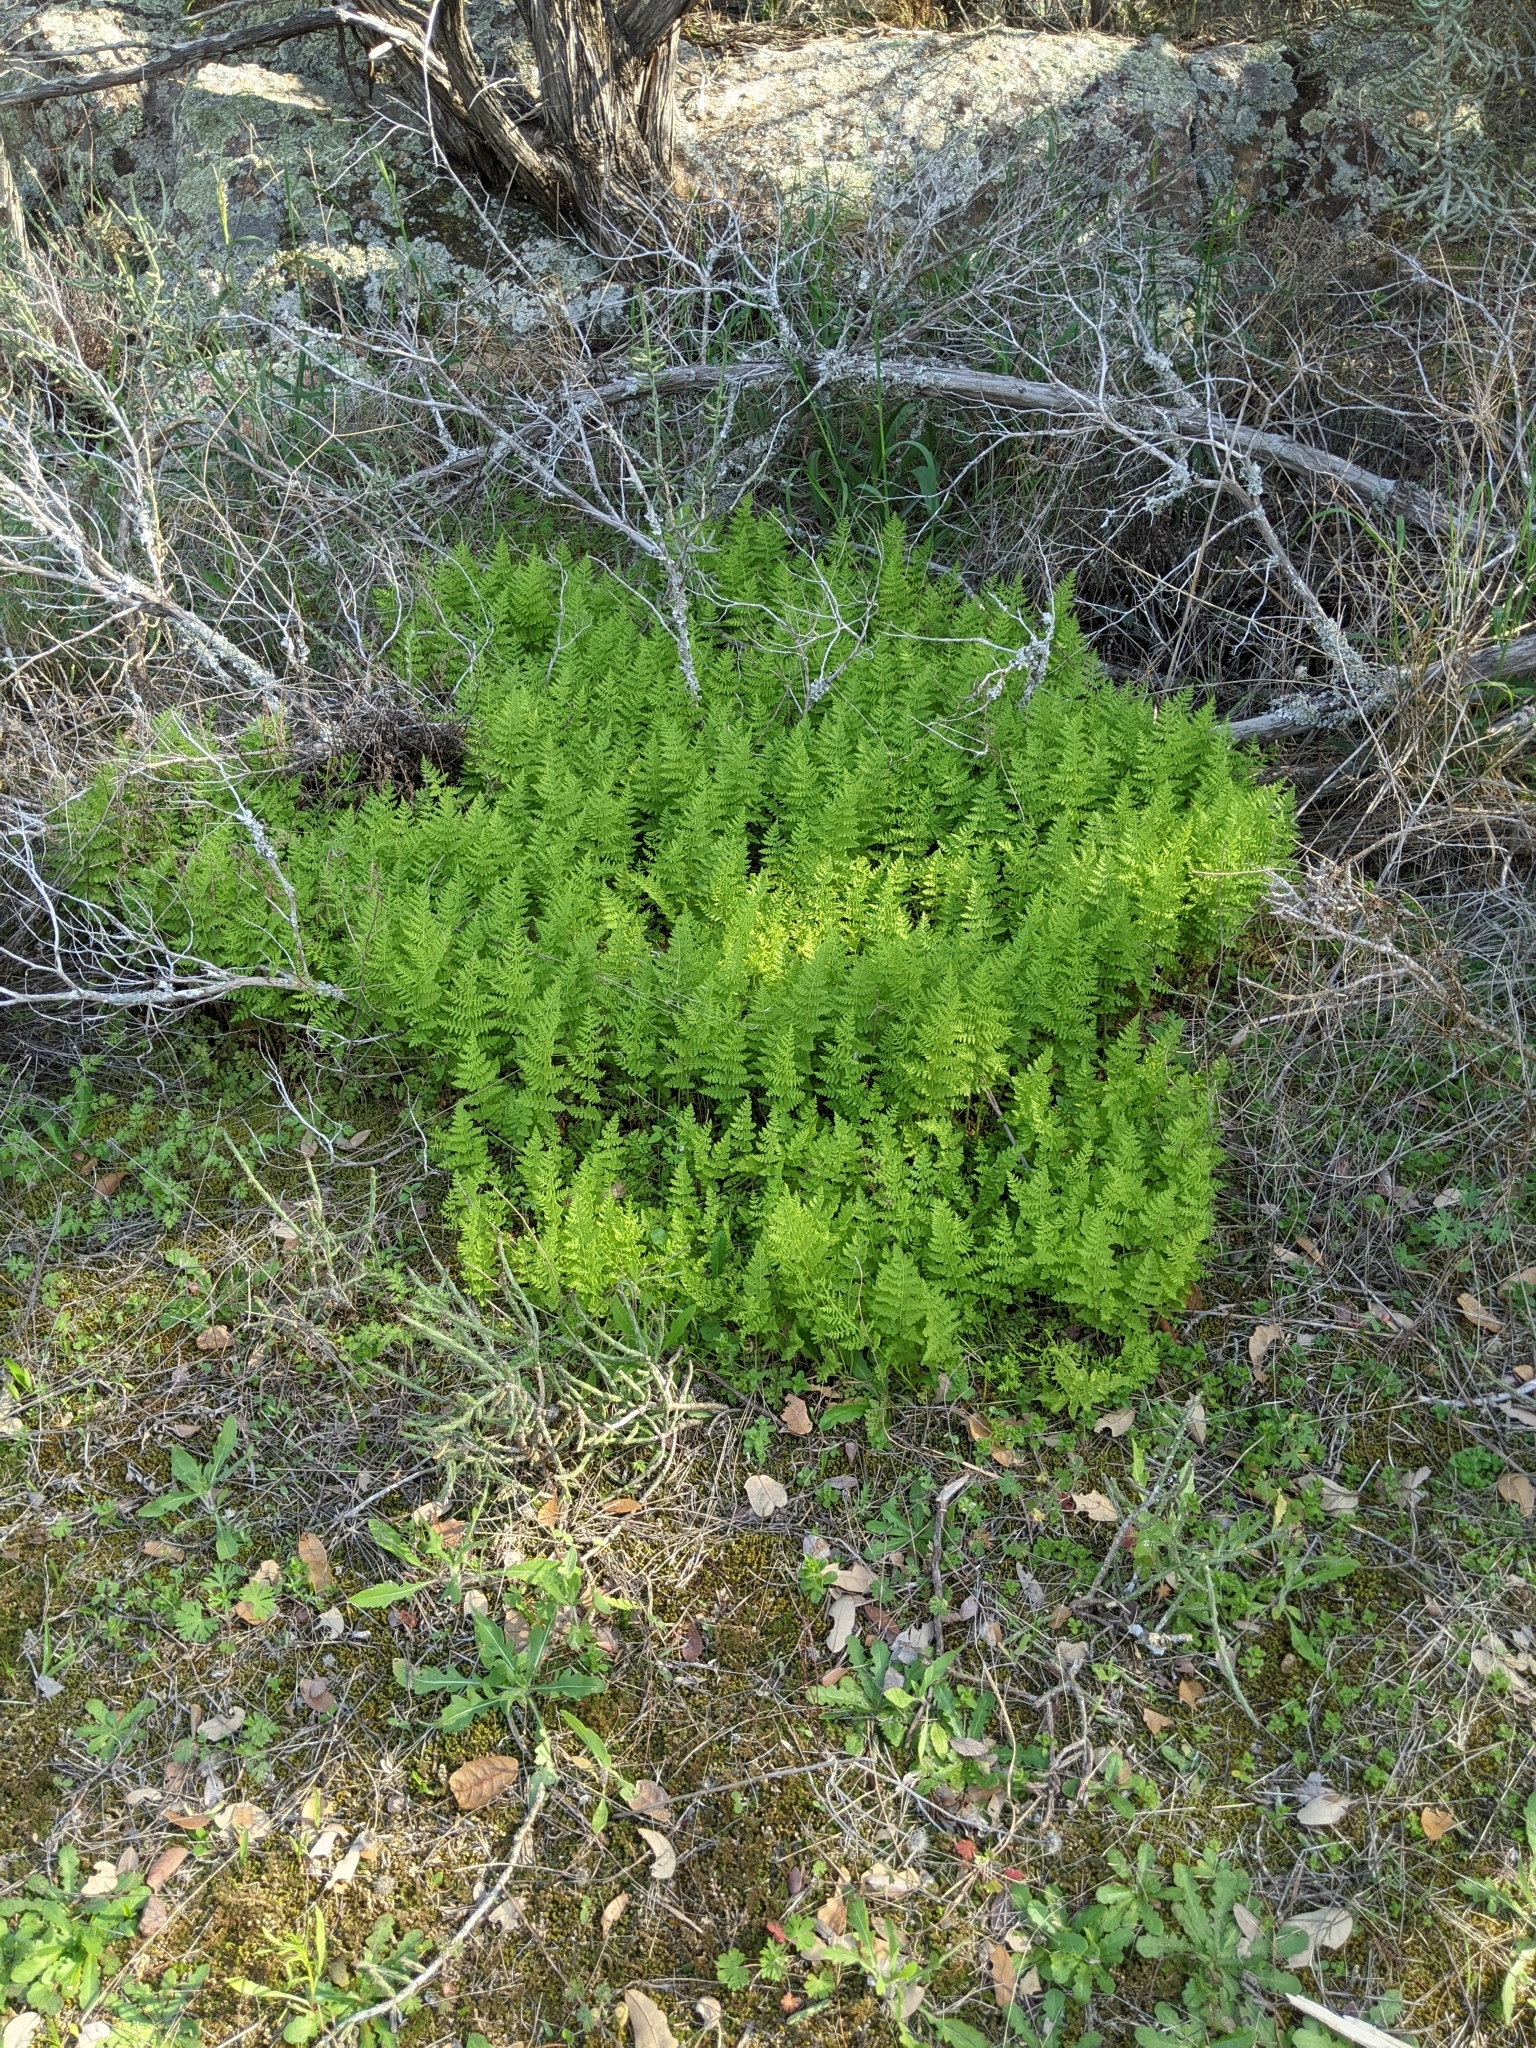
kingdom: Plantae
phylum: Tracheophyta
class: Polypodiopsida
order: Polypodiales
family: Woodsiaceae
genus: Physematium
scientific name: Physematium obtusum
